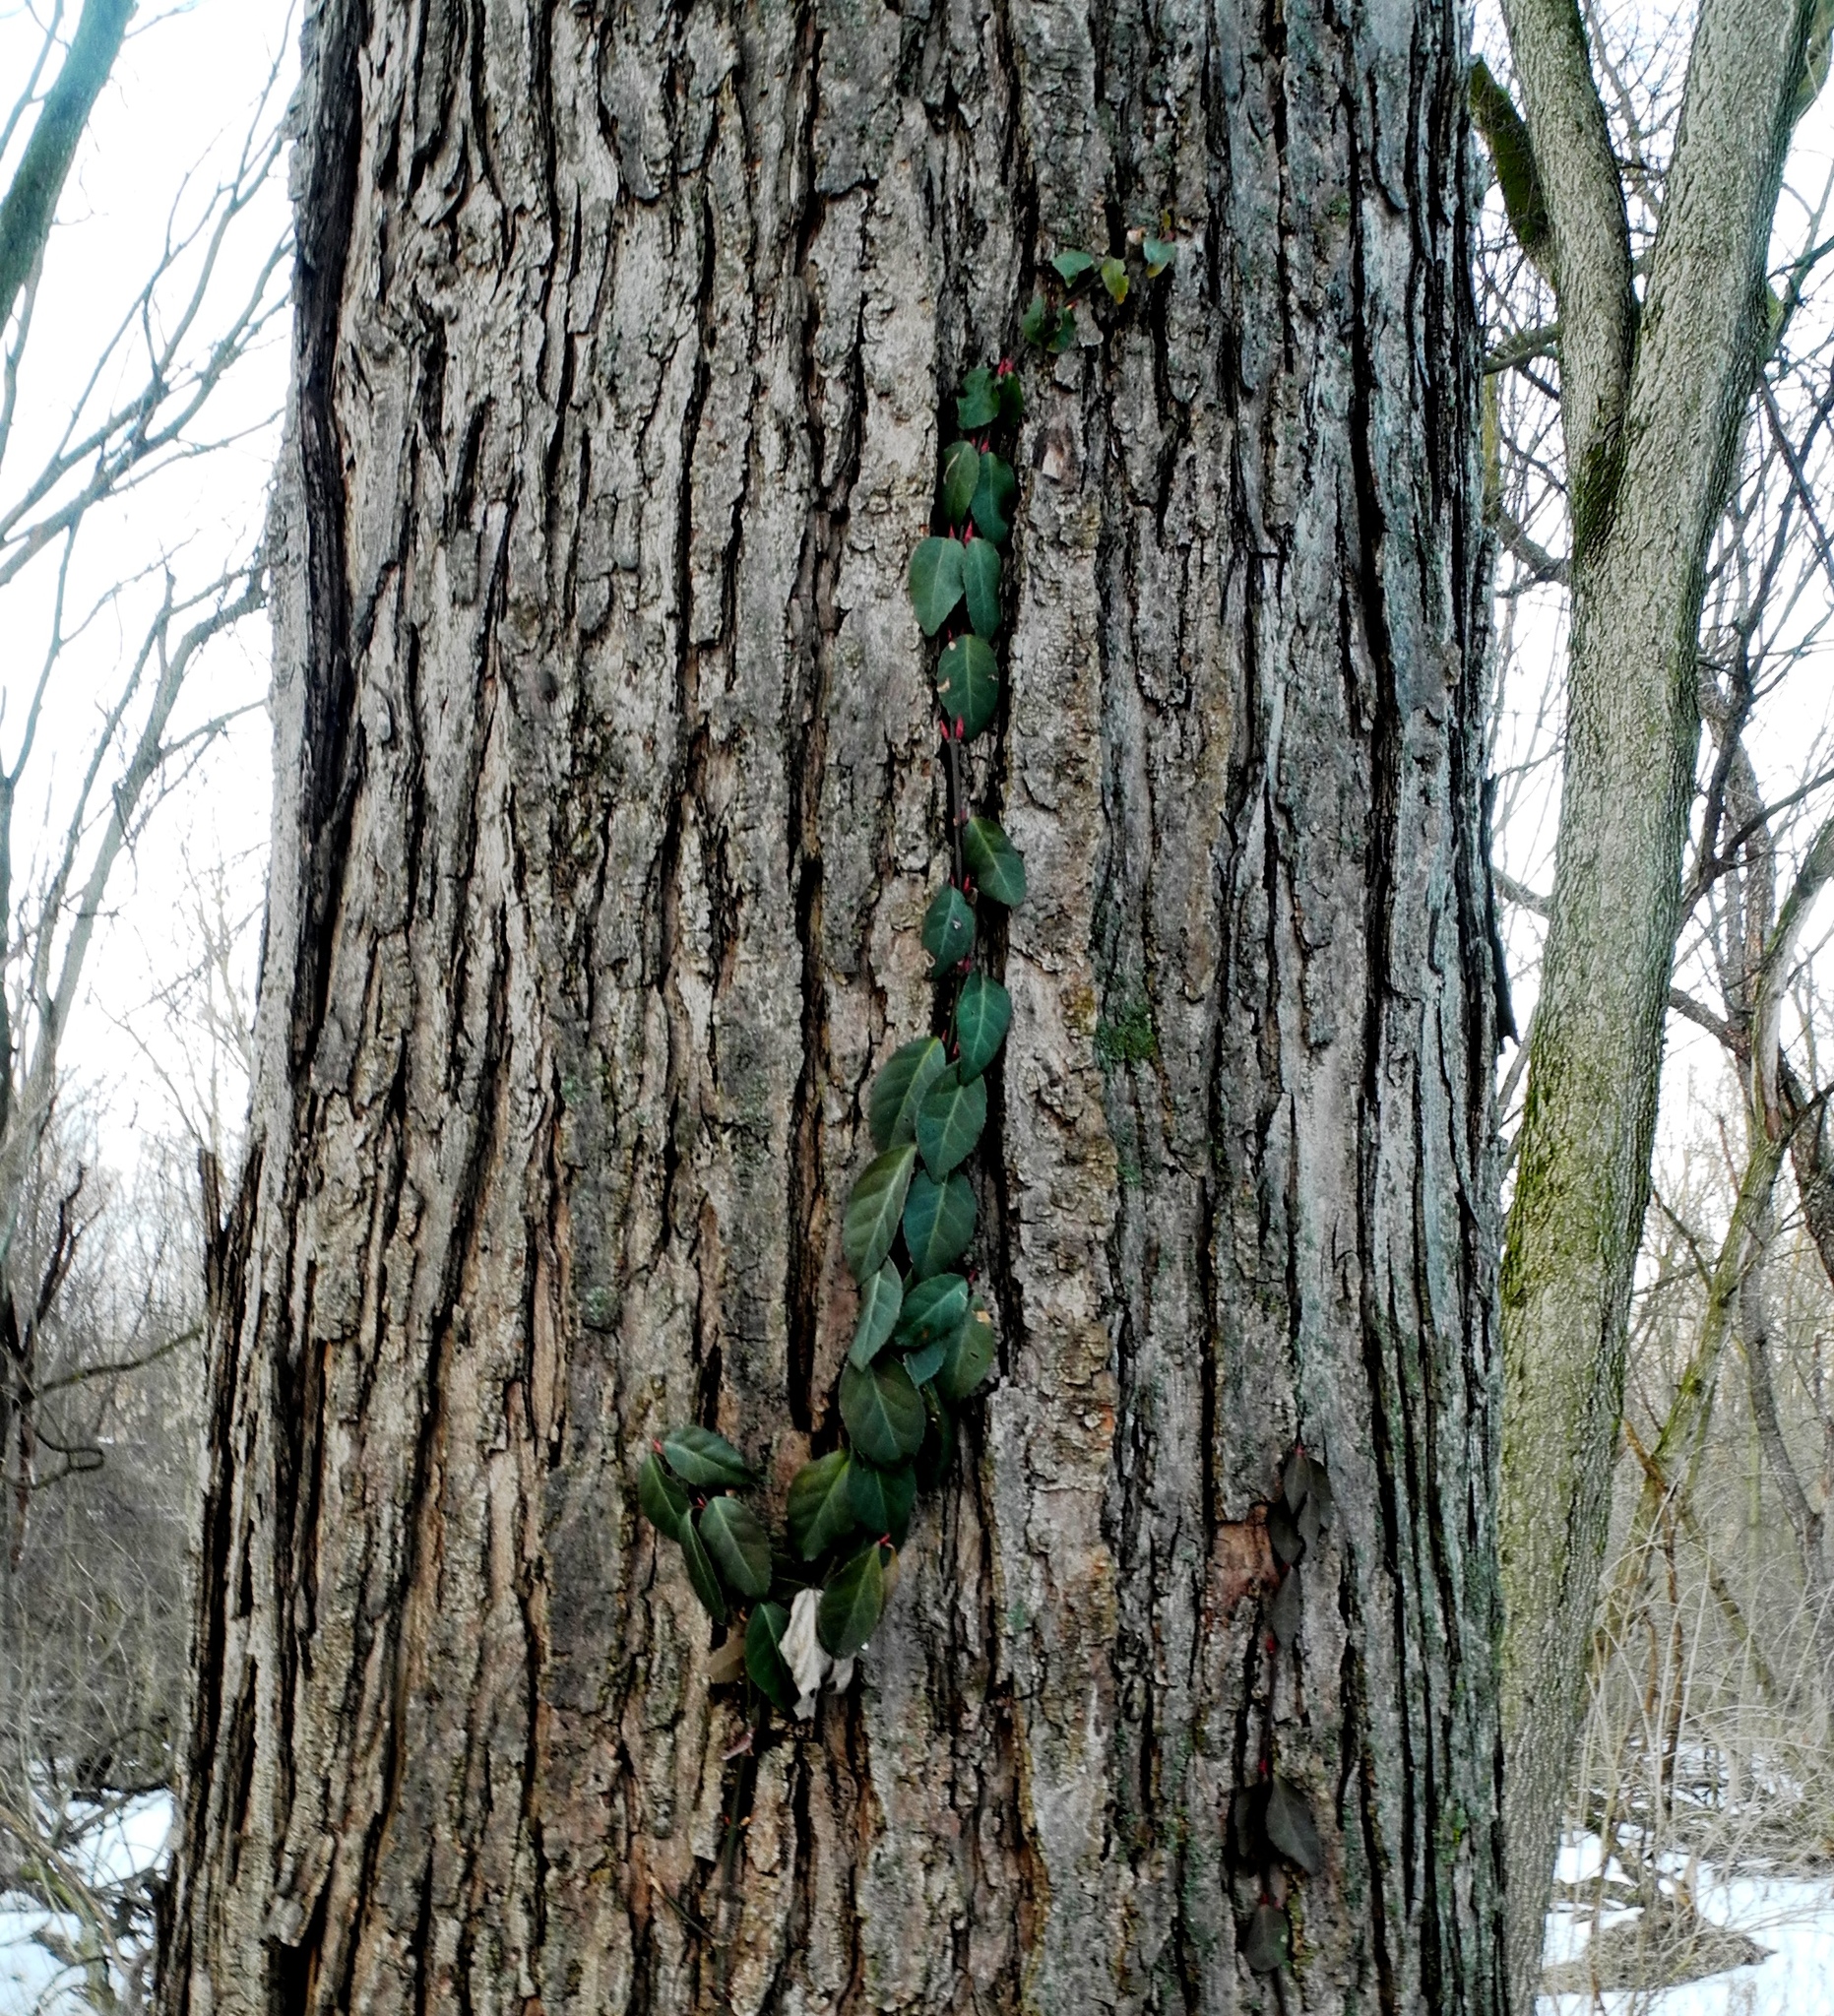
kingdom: Plantae
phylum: Tracheophyta
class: Magnoliopsida
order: Celastrales
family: Celastraceae
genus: Euonymus
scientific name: Euonymus fortunei
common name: Climbing euonymus
